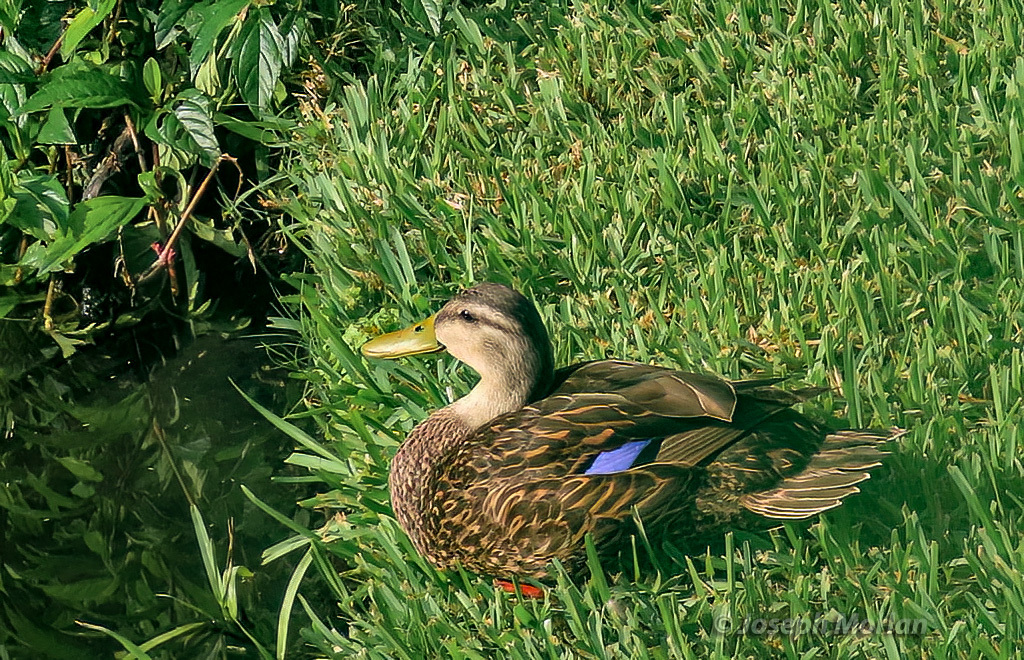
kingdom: Animalia
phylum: Chordata
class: Aves
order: Anseriformes
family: Anatidae
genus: Anas
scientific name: Anas fulvigula
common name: Mottled duck
